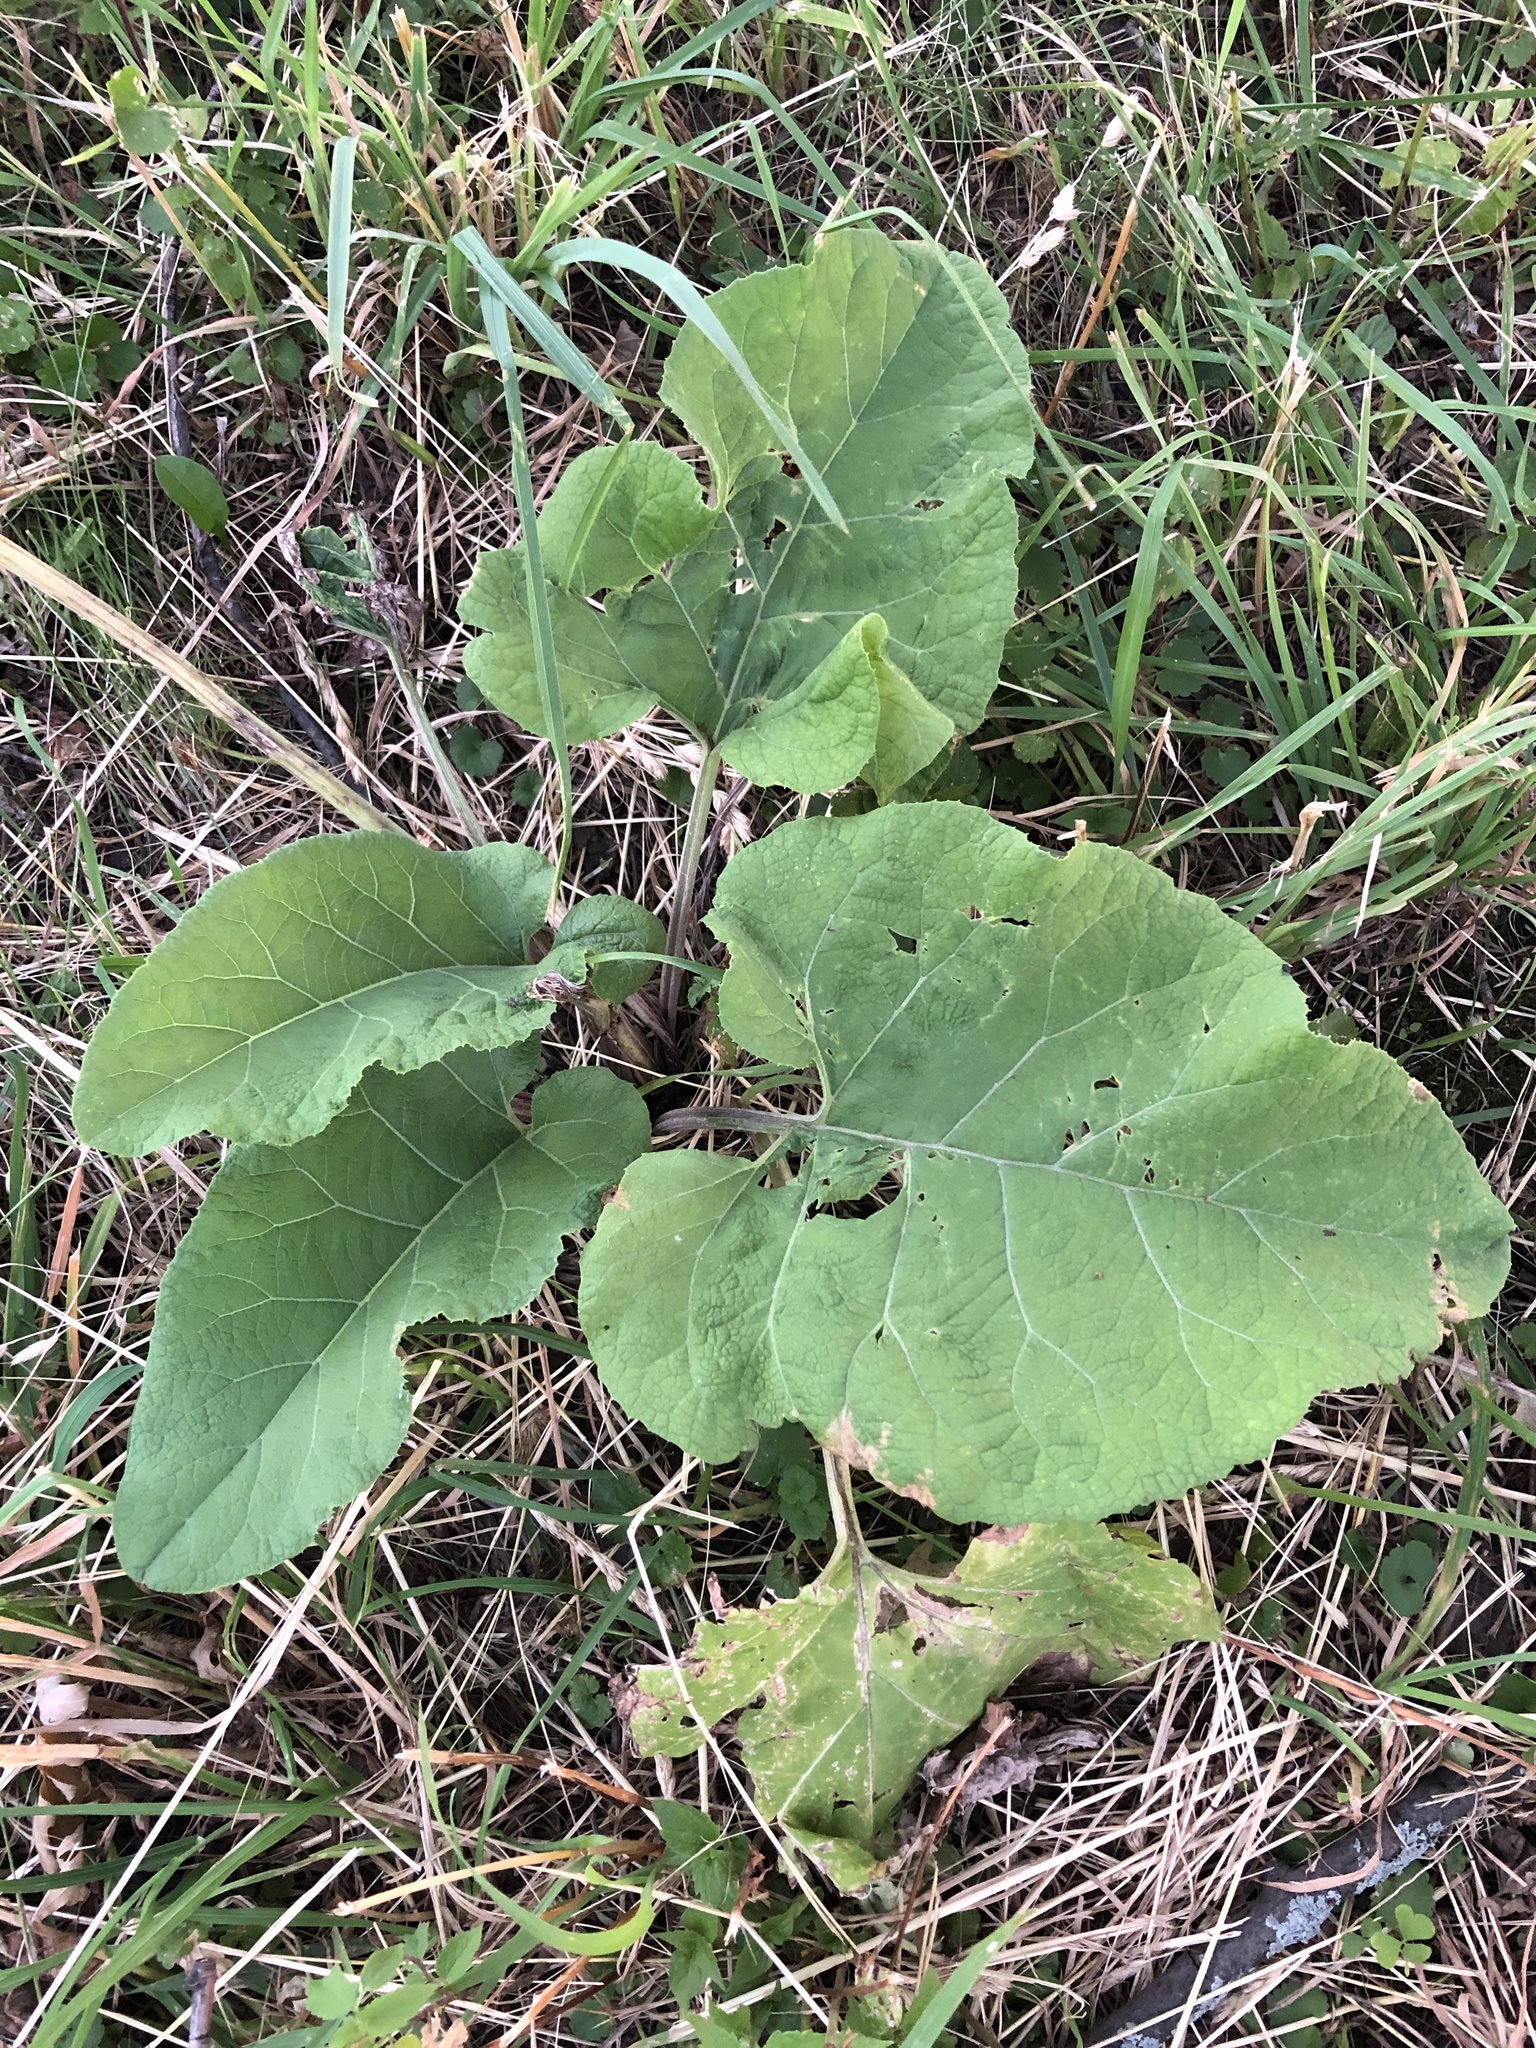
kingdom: Plantae
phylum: Tracheophyta
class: Magnoliopsida
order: Asterales
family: Asteraceae
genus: Arctium
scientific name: Arctium
